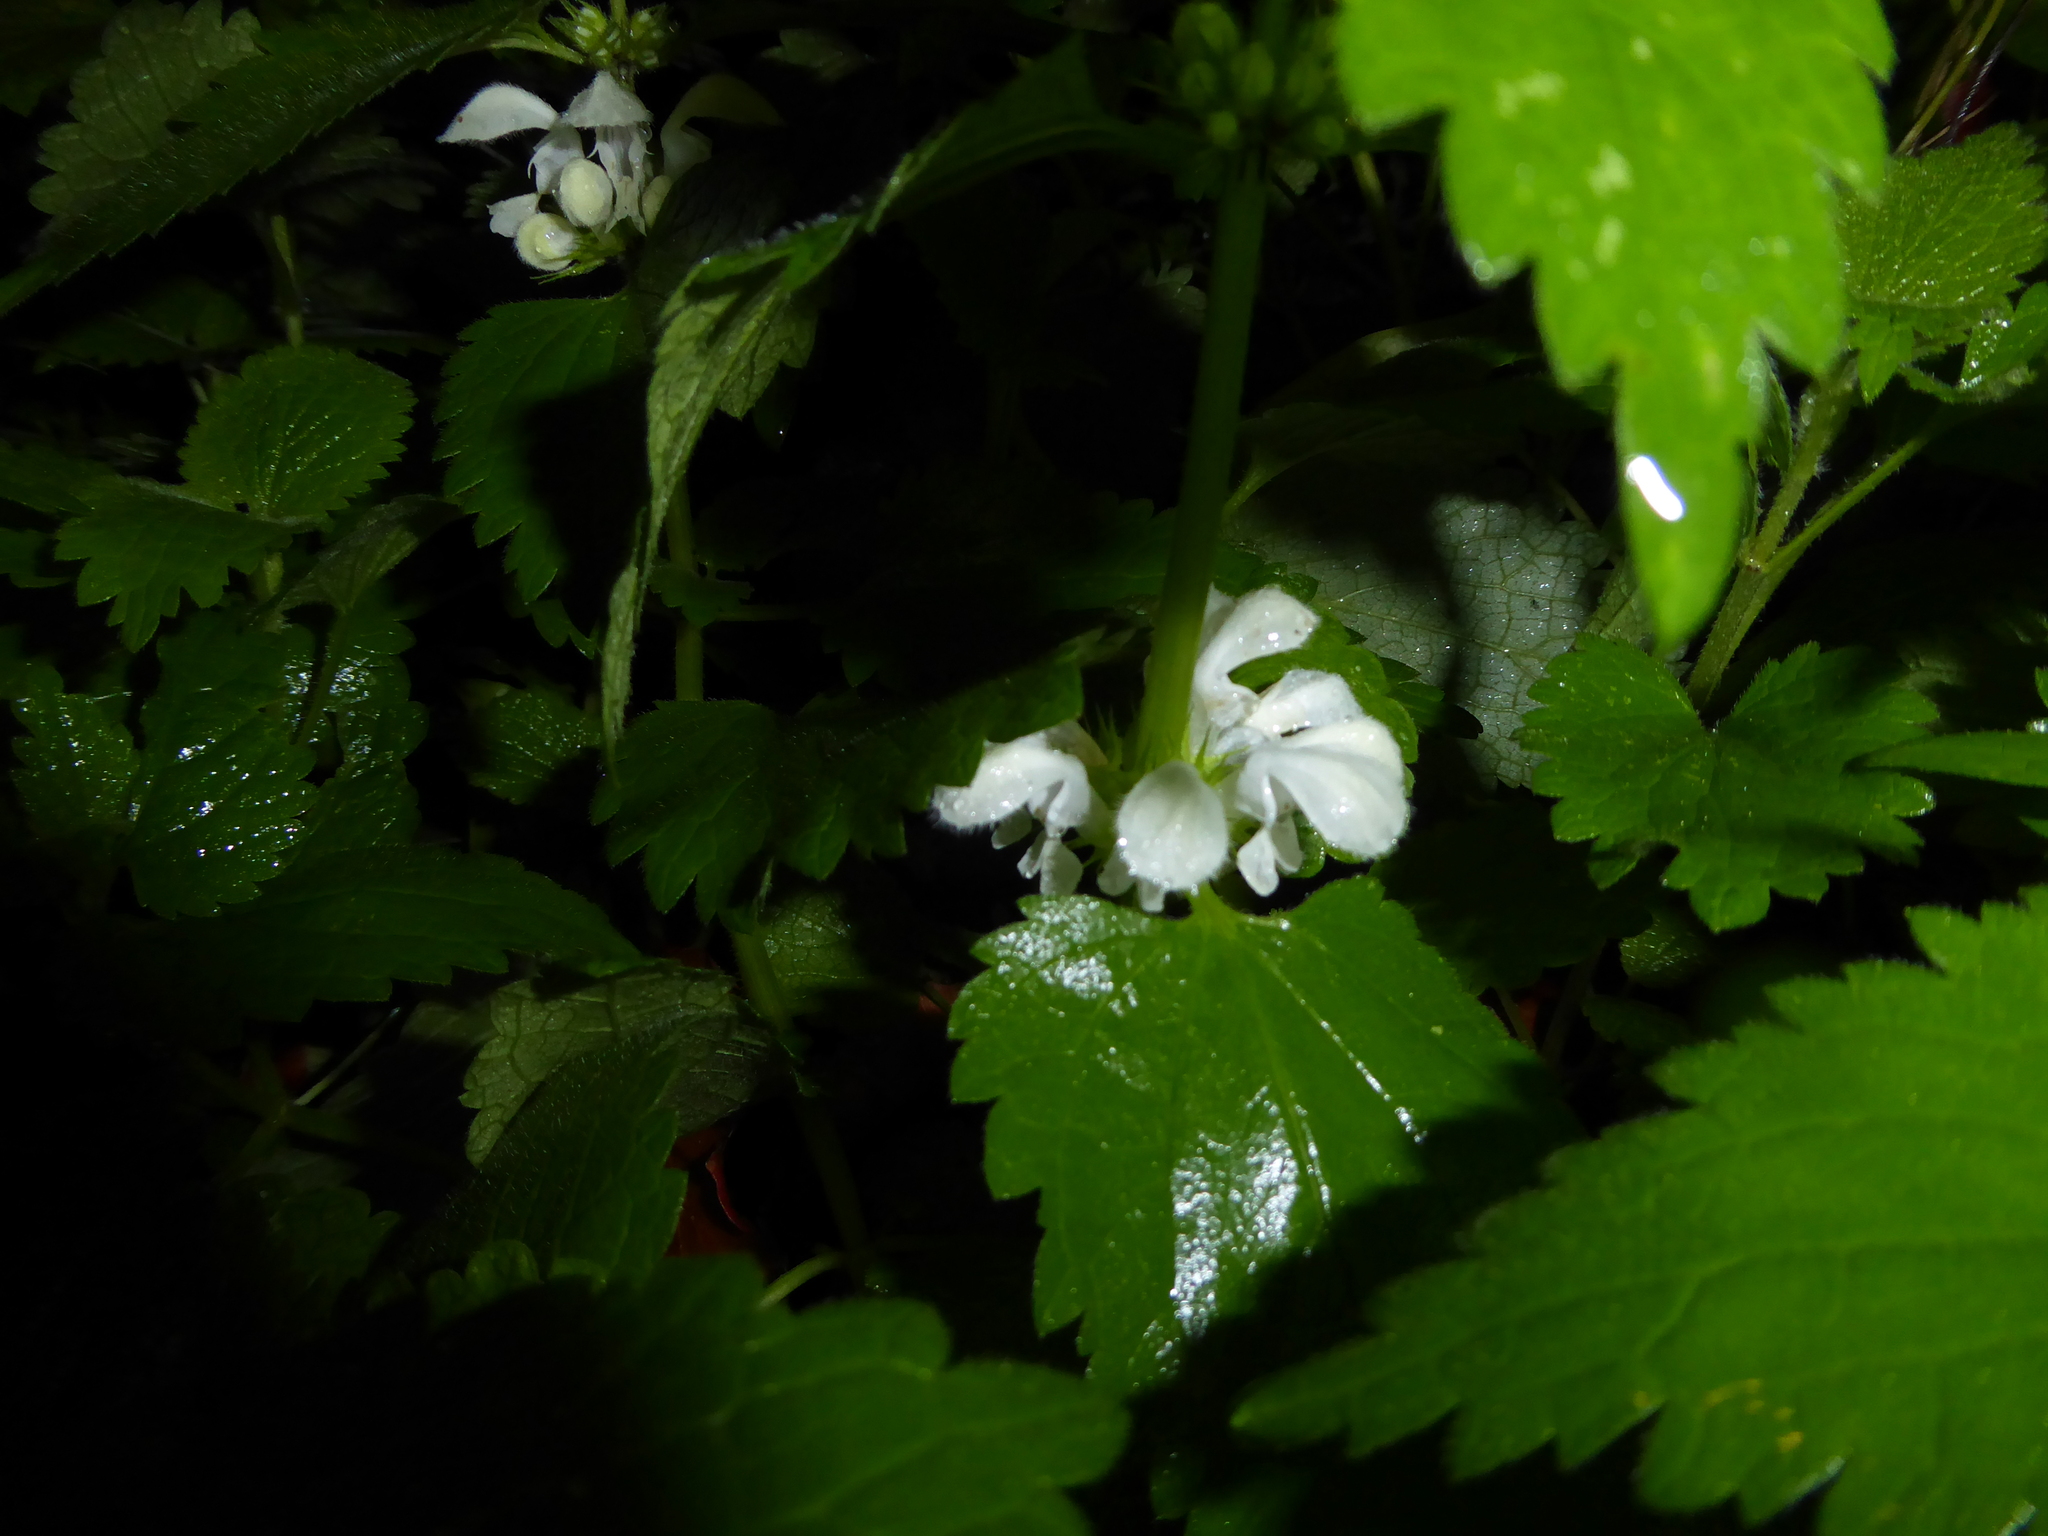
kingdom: Plantae
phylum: Tracheophyta
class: Magnoliopsida
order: Lamiales
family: Lamiaceae
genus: Lamium
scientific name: Lamium album
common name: White dead-nettle
